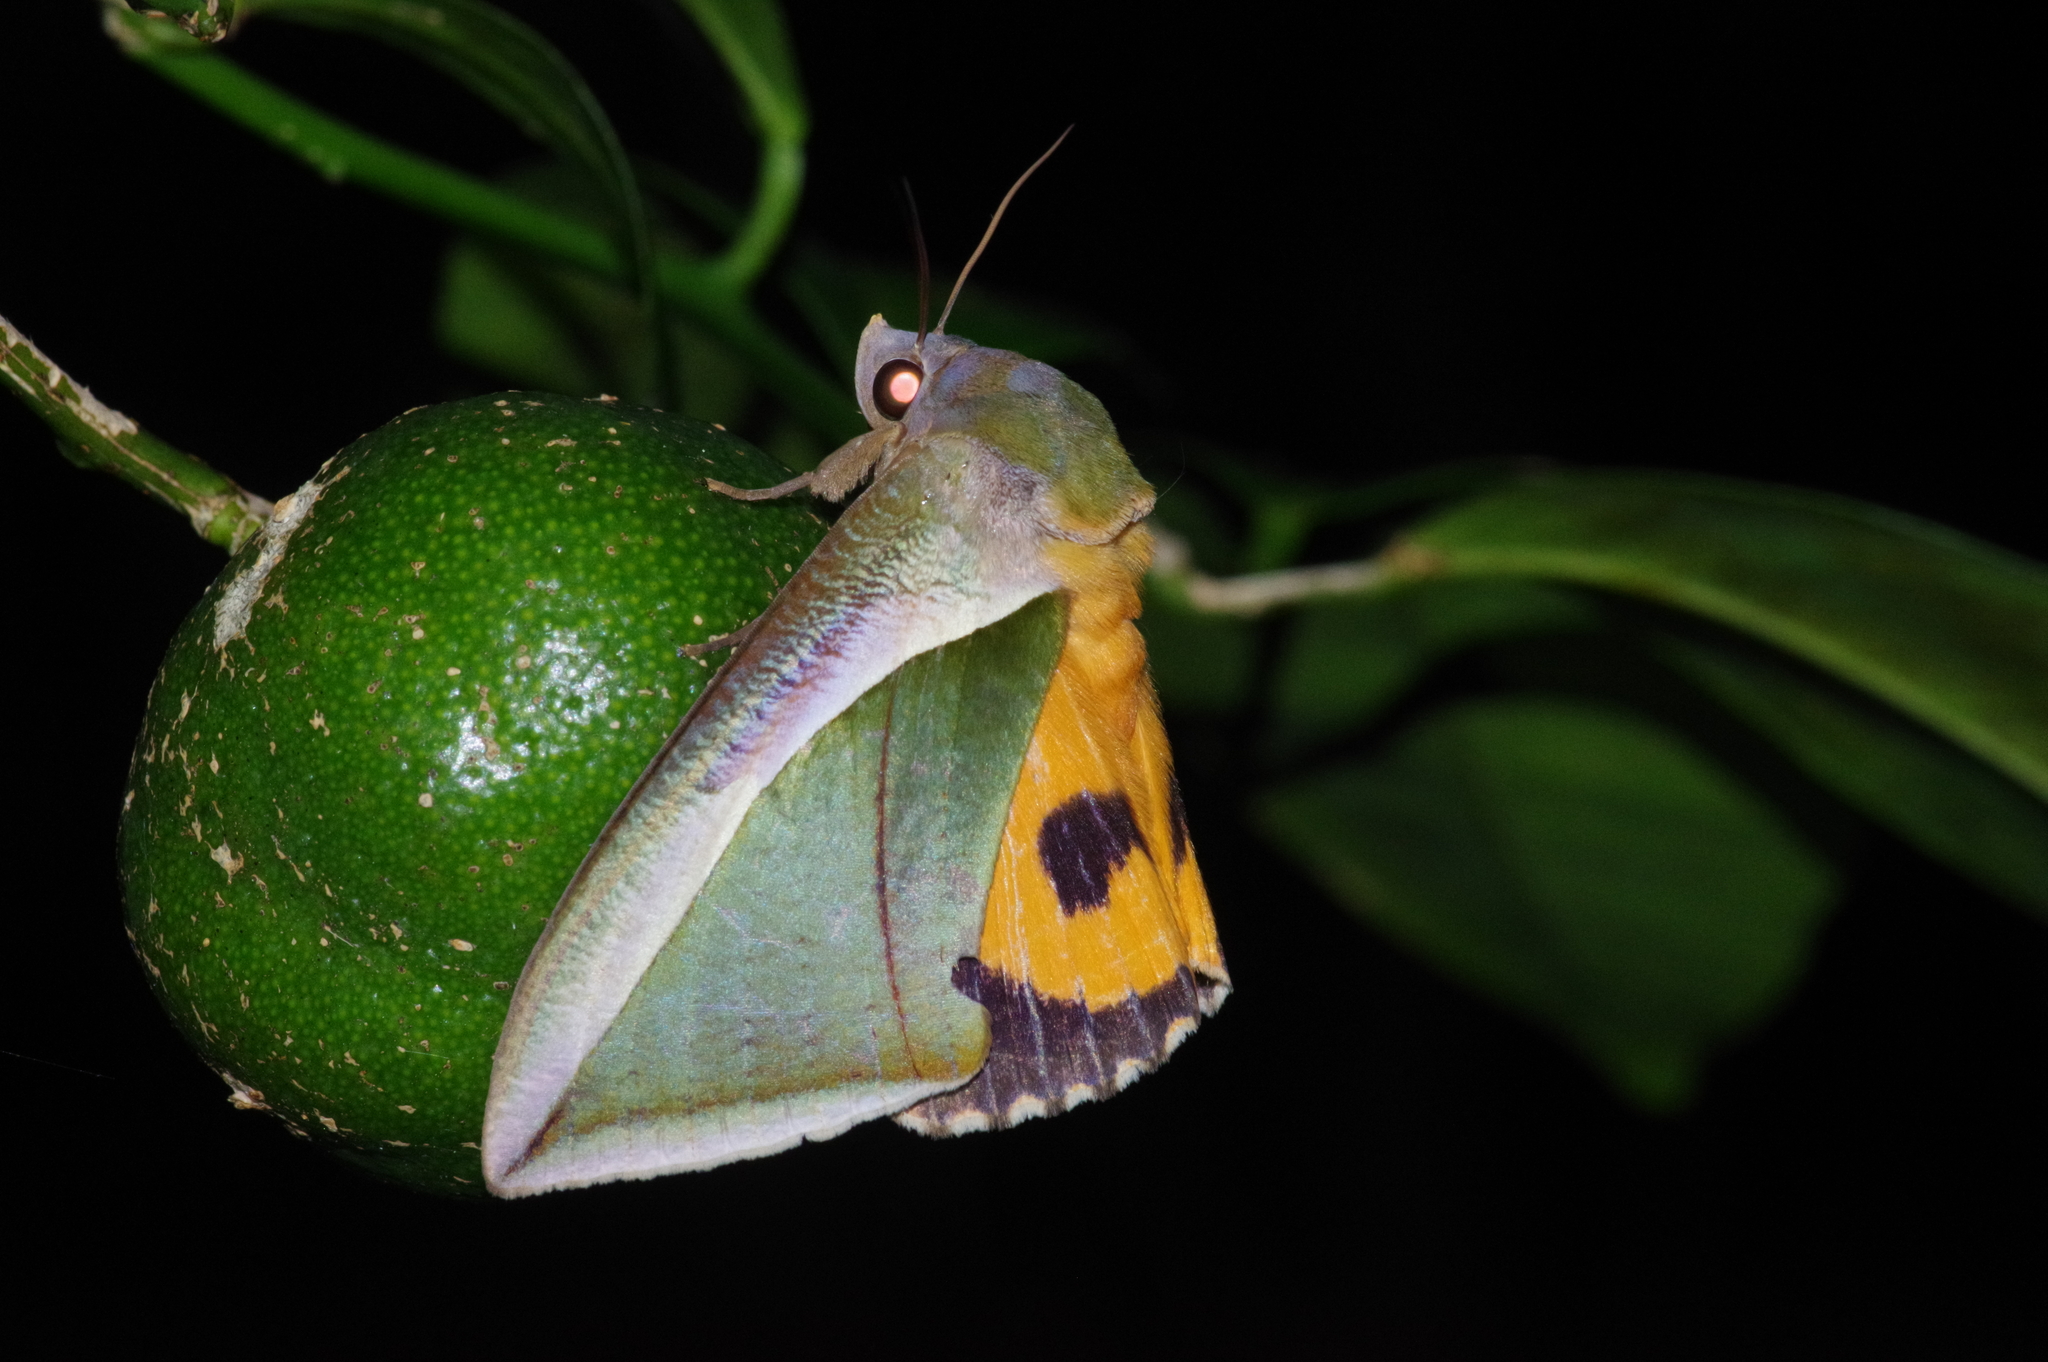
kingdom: Animalia
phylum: Arthropoda
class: Insecta
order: Lepidoptera
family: Erebidae
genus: Eudocima
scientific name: Eudocima salaminia
